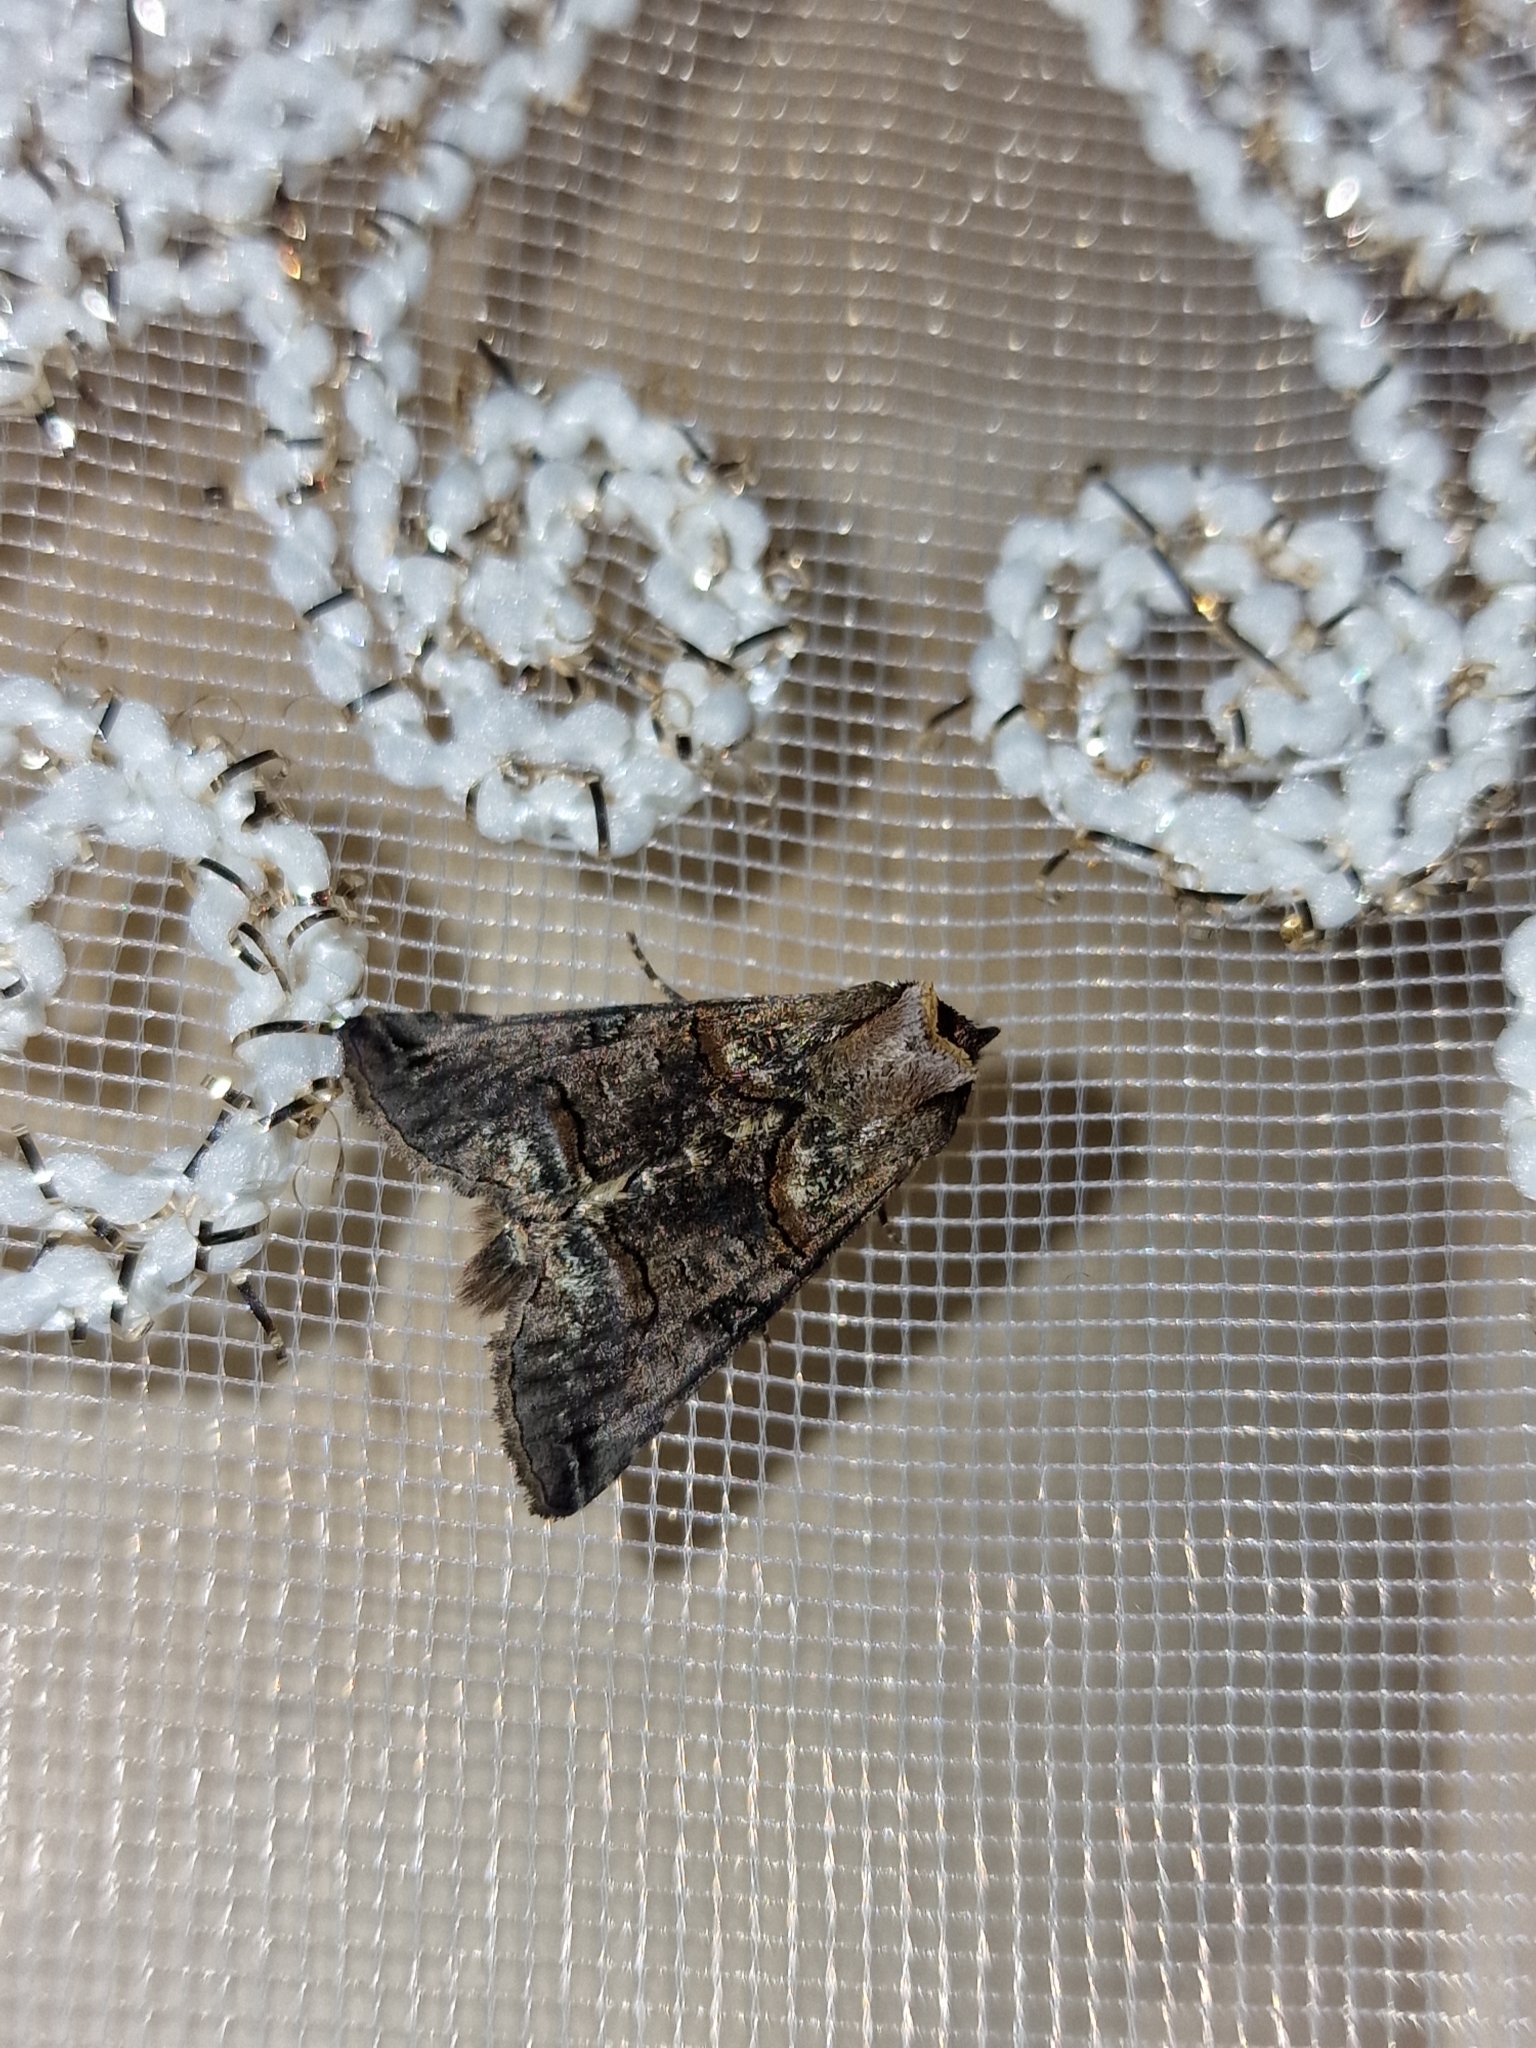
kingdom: Animalia
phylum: Arthropoda
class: Insecta
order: Lepidoptera
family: Noctuidae
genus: Abrostola
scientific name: Abrostola tripartita
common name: Spectacle
